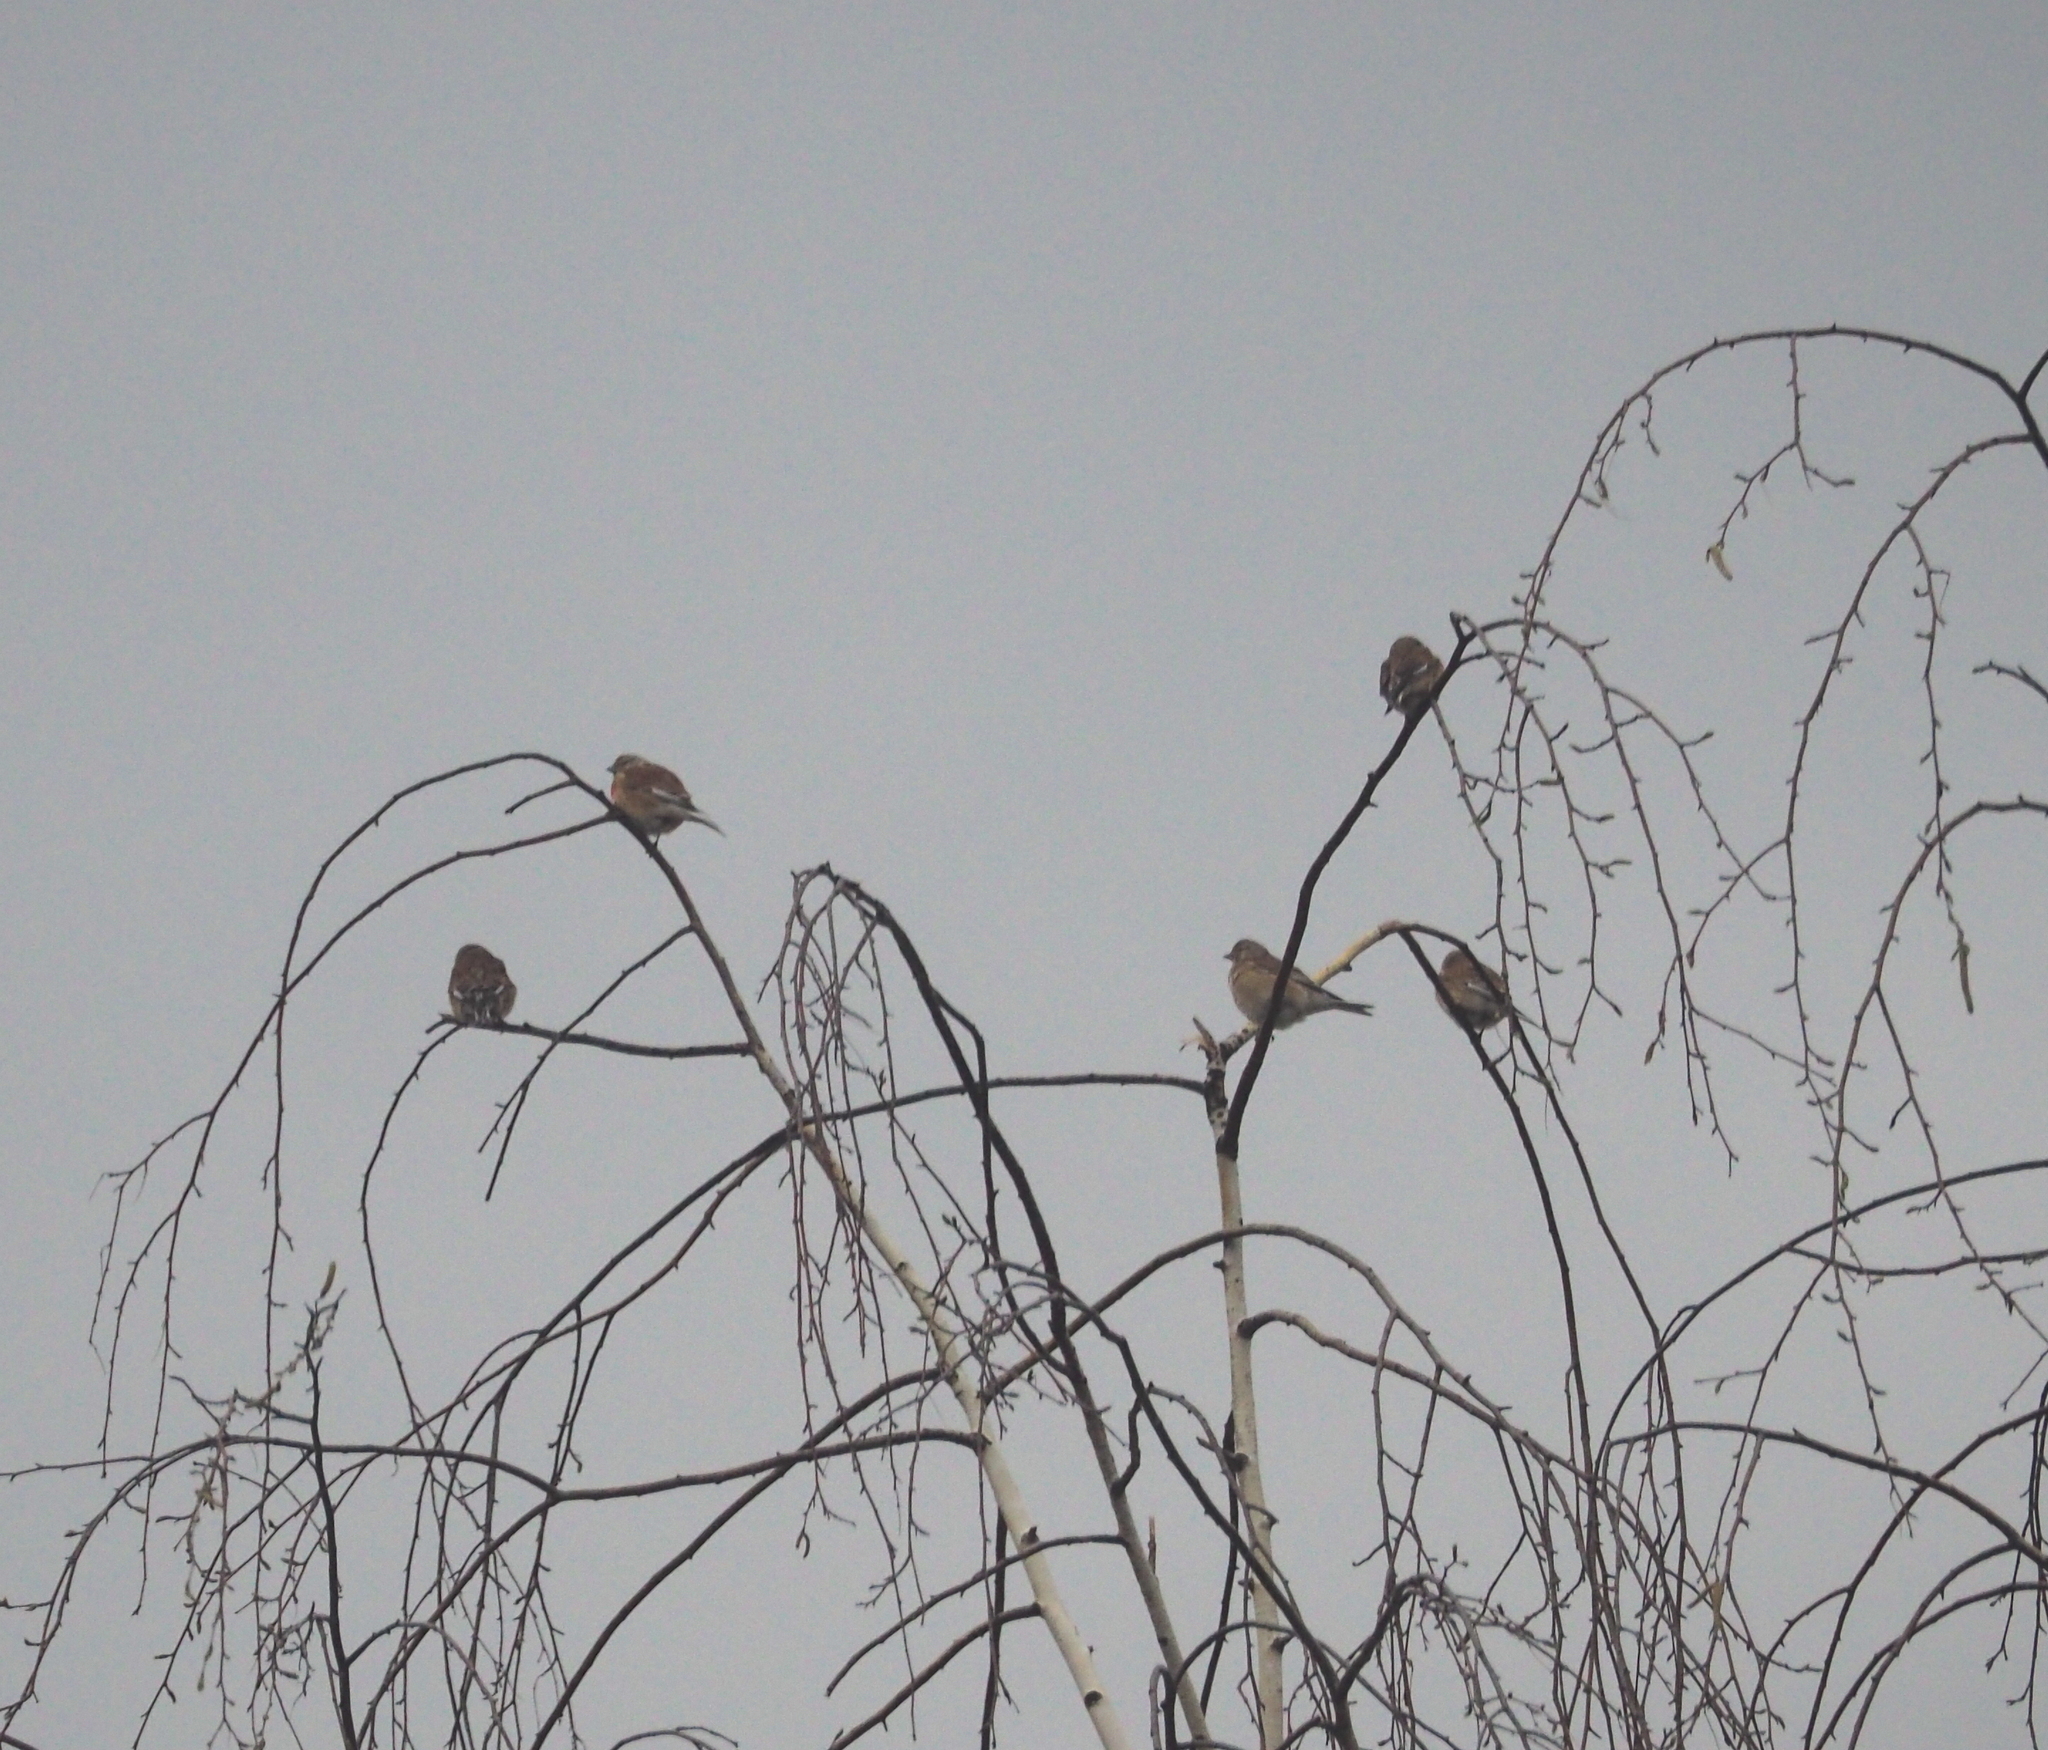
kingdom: Animalia
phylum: Chordata
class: Aves
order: Passeriformes
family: Fringillidae
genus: Linaria
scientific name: Linaria cannabina
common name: Common linnet
